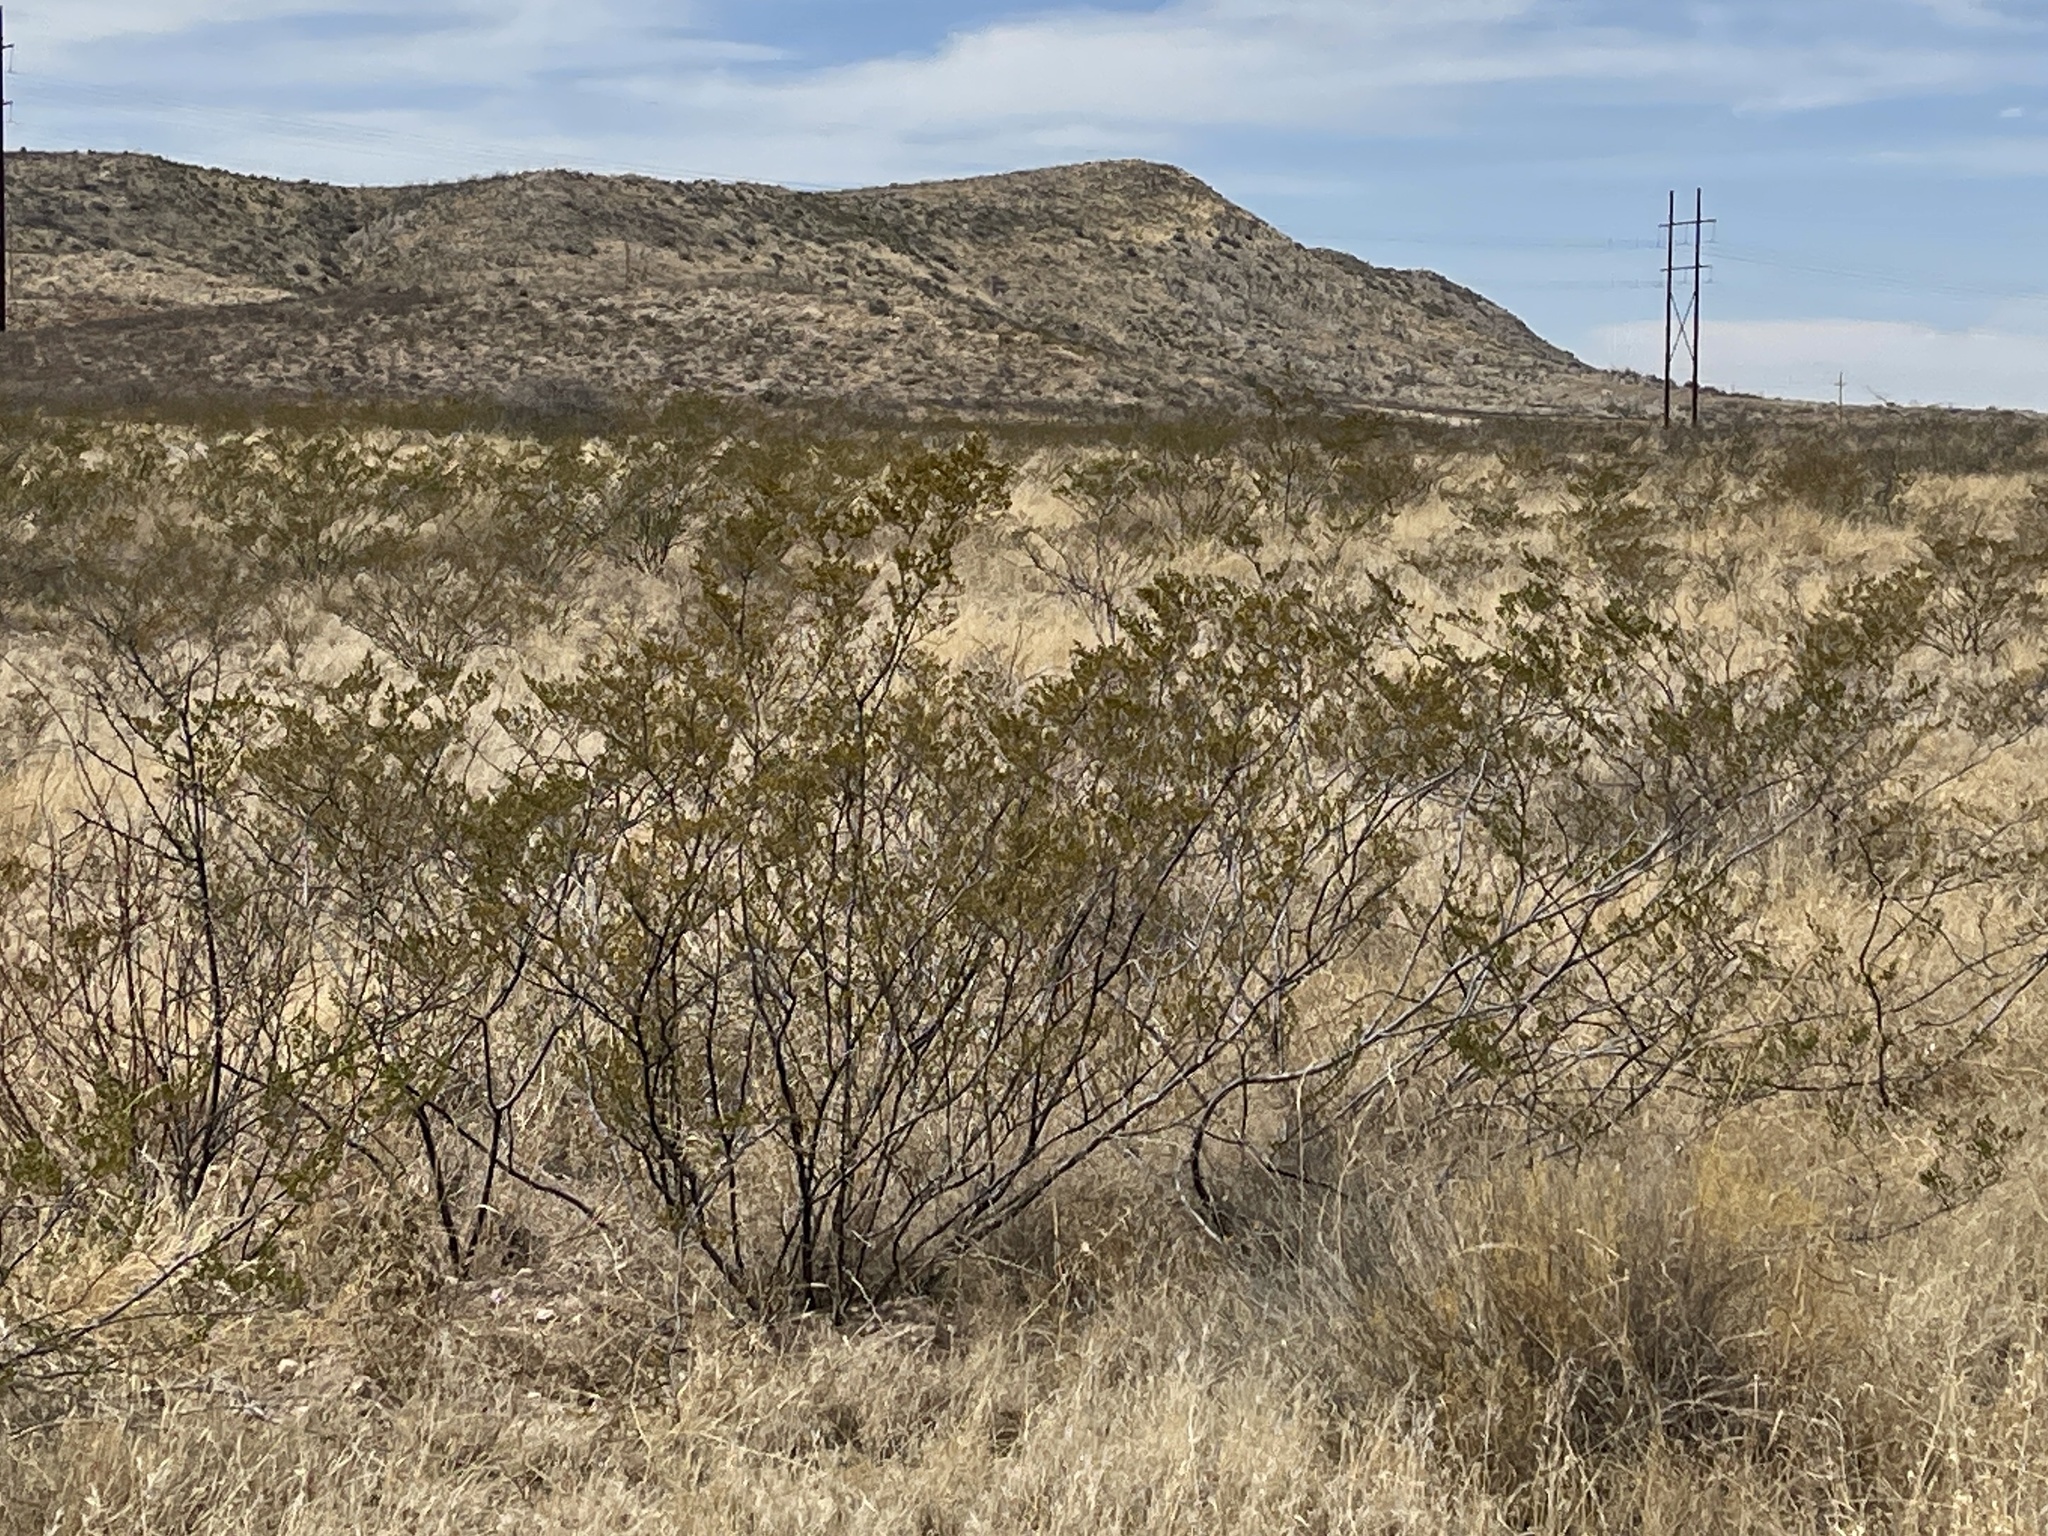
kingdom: Plantae
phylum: Tracheophyta
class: Magnoliopsida
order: Zygophyllales
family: Zygophyllaceae
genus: Larrea
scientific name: Larrea tridentata
